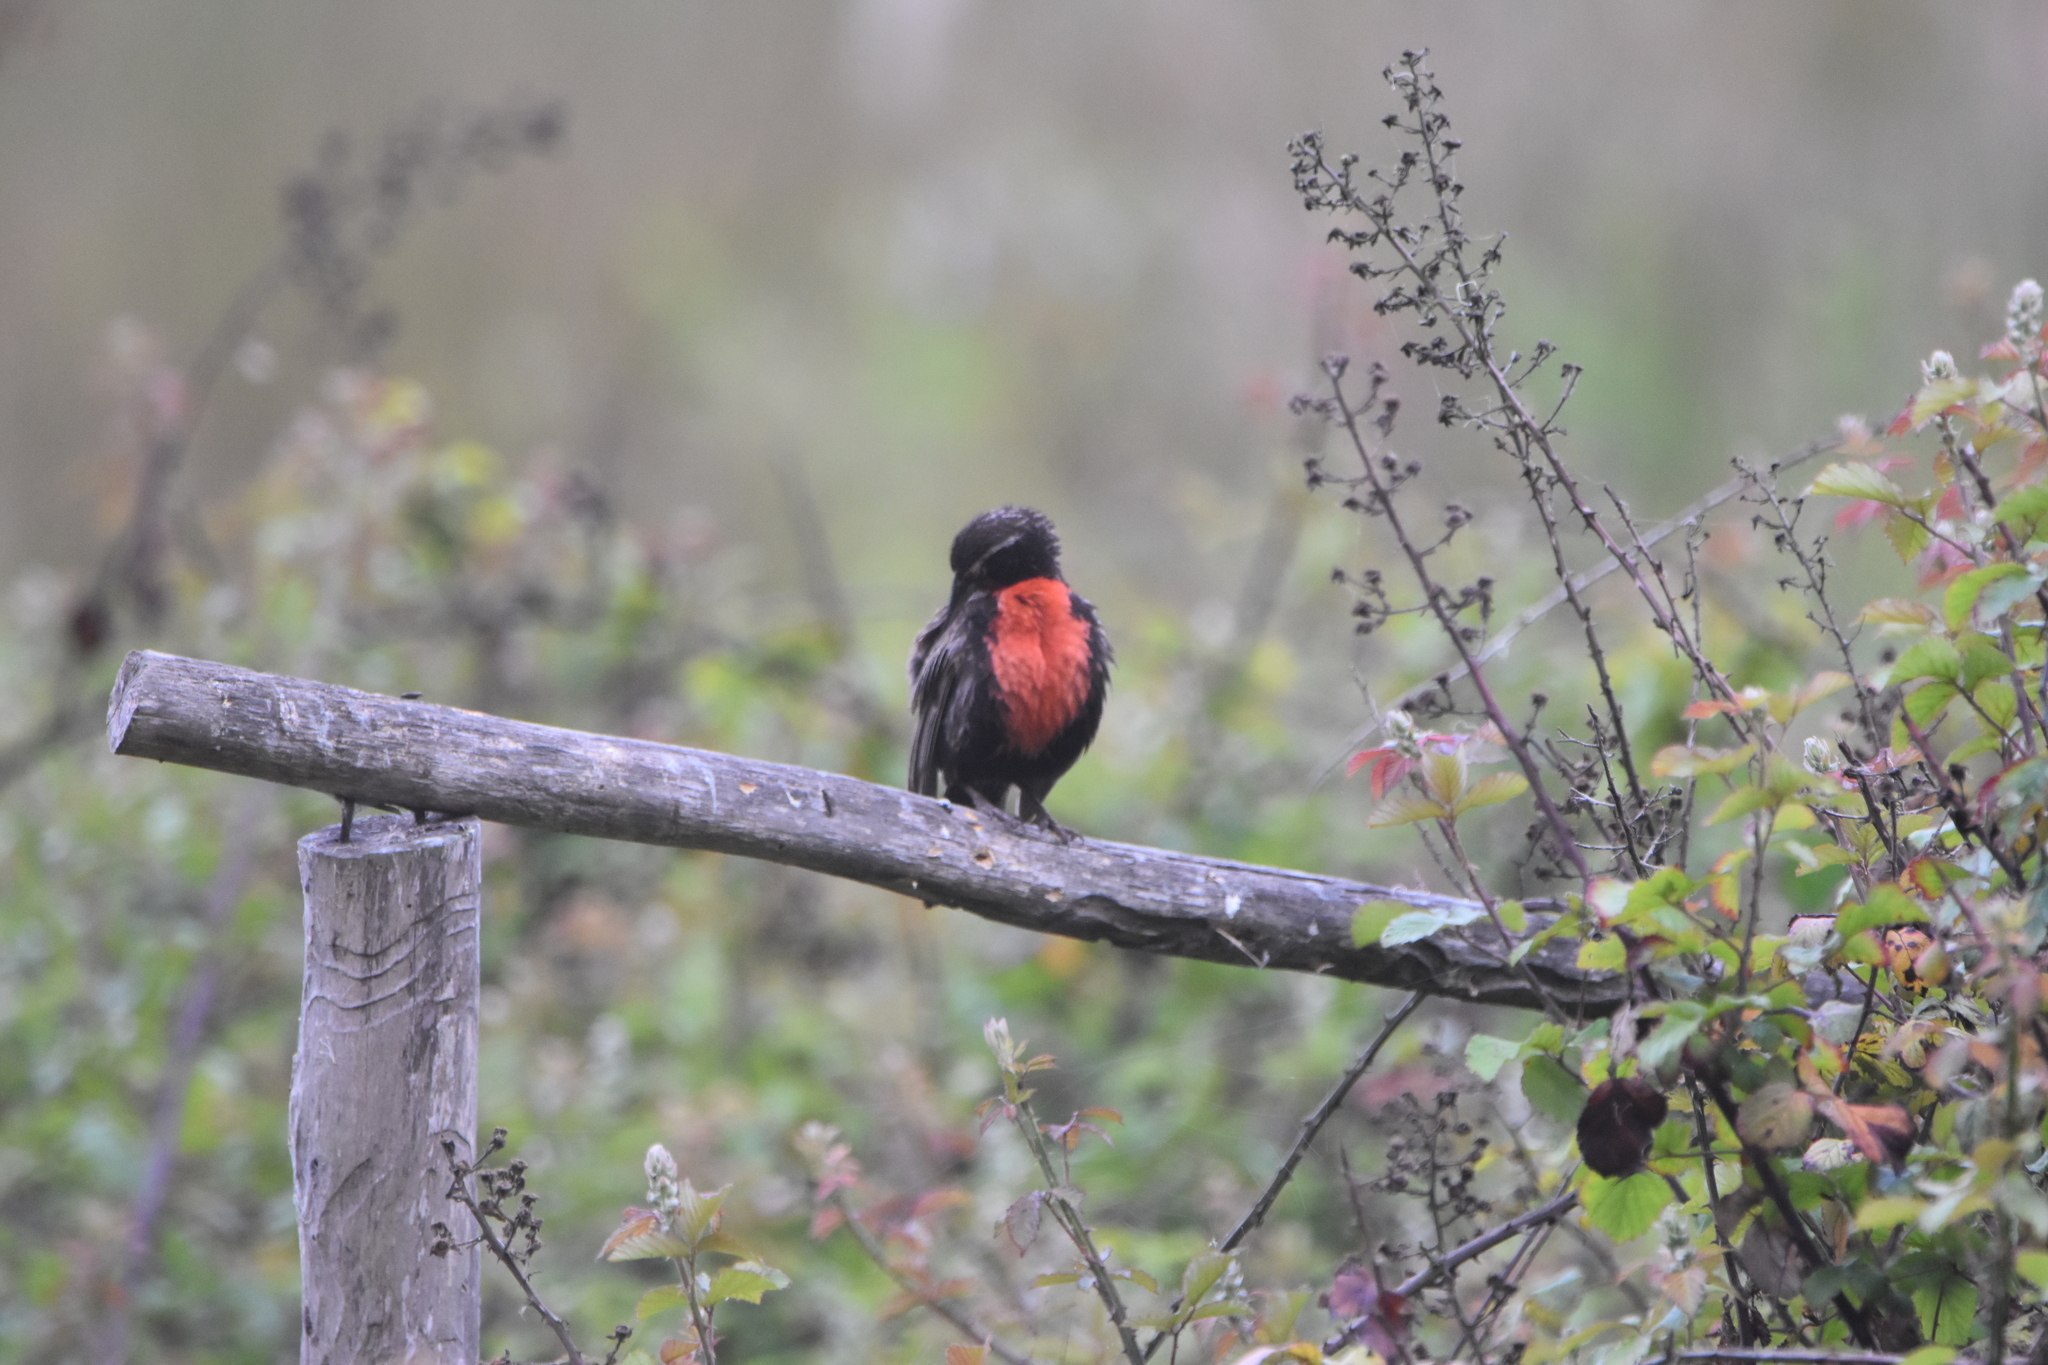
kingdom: Animalia
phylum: Chordata
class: Aves
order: Passeriformes
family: Icteridae
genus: Sturnella
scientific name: Sturnella loyca
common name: Long-tailed meadowlark
